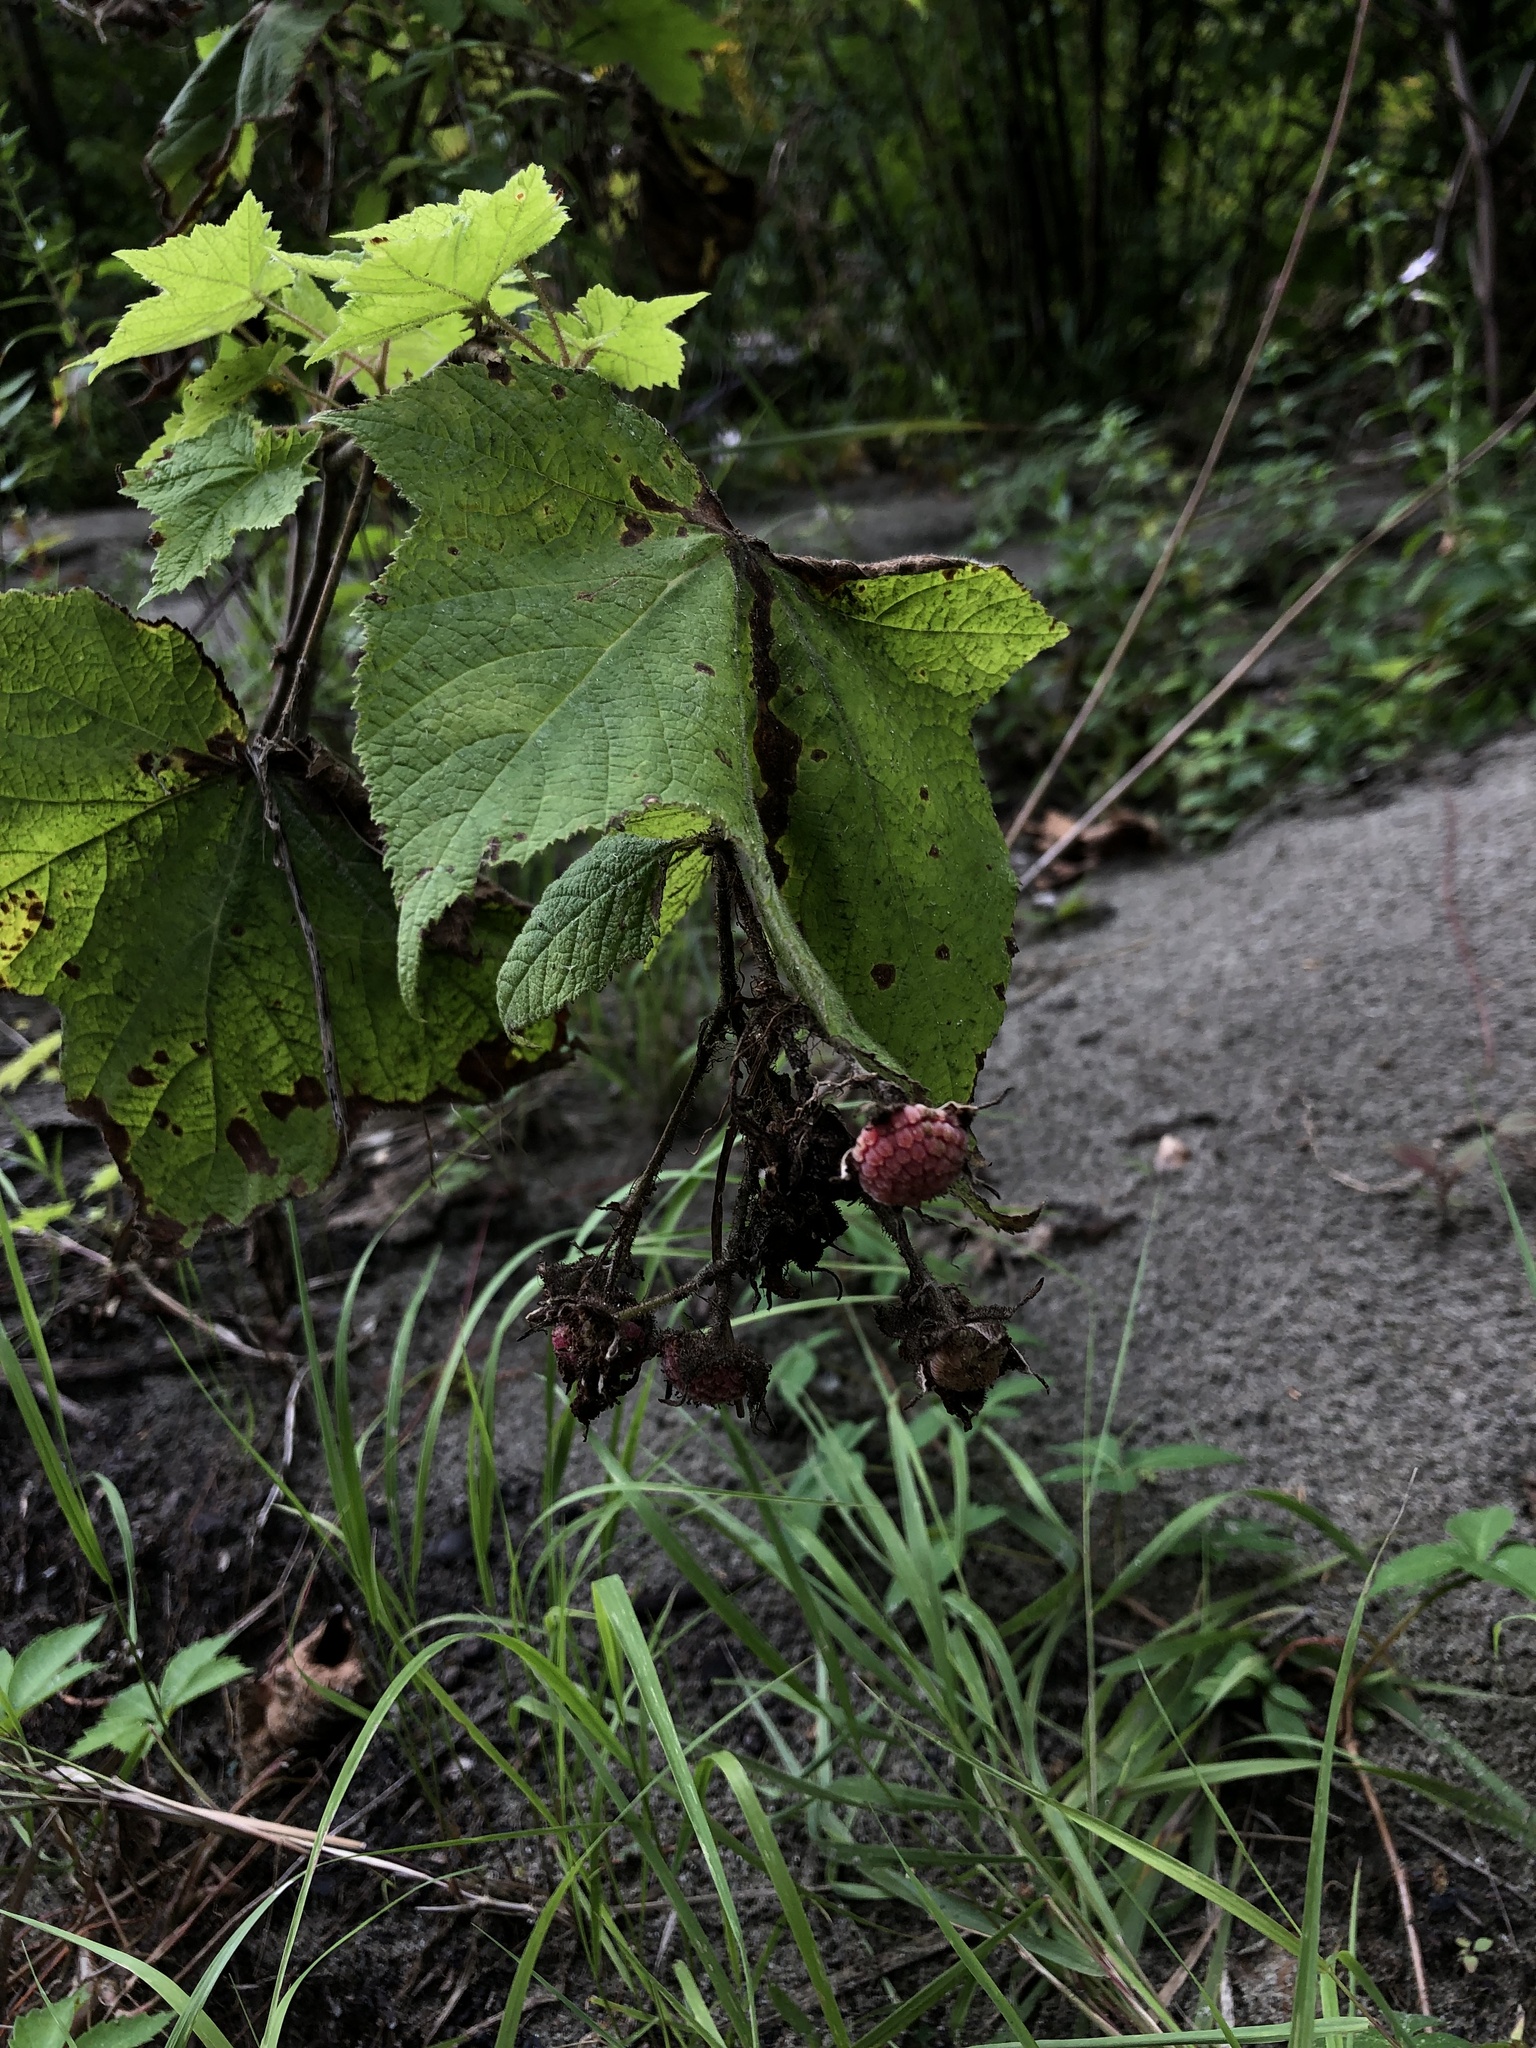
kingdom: Plantae
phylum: Tracheophyta
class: Magnoliopsida
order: Rosales
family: Rosaceae
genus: Rubus
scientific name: Rubus odoratus
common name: Purple-flowered raspberry
